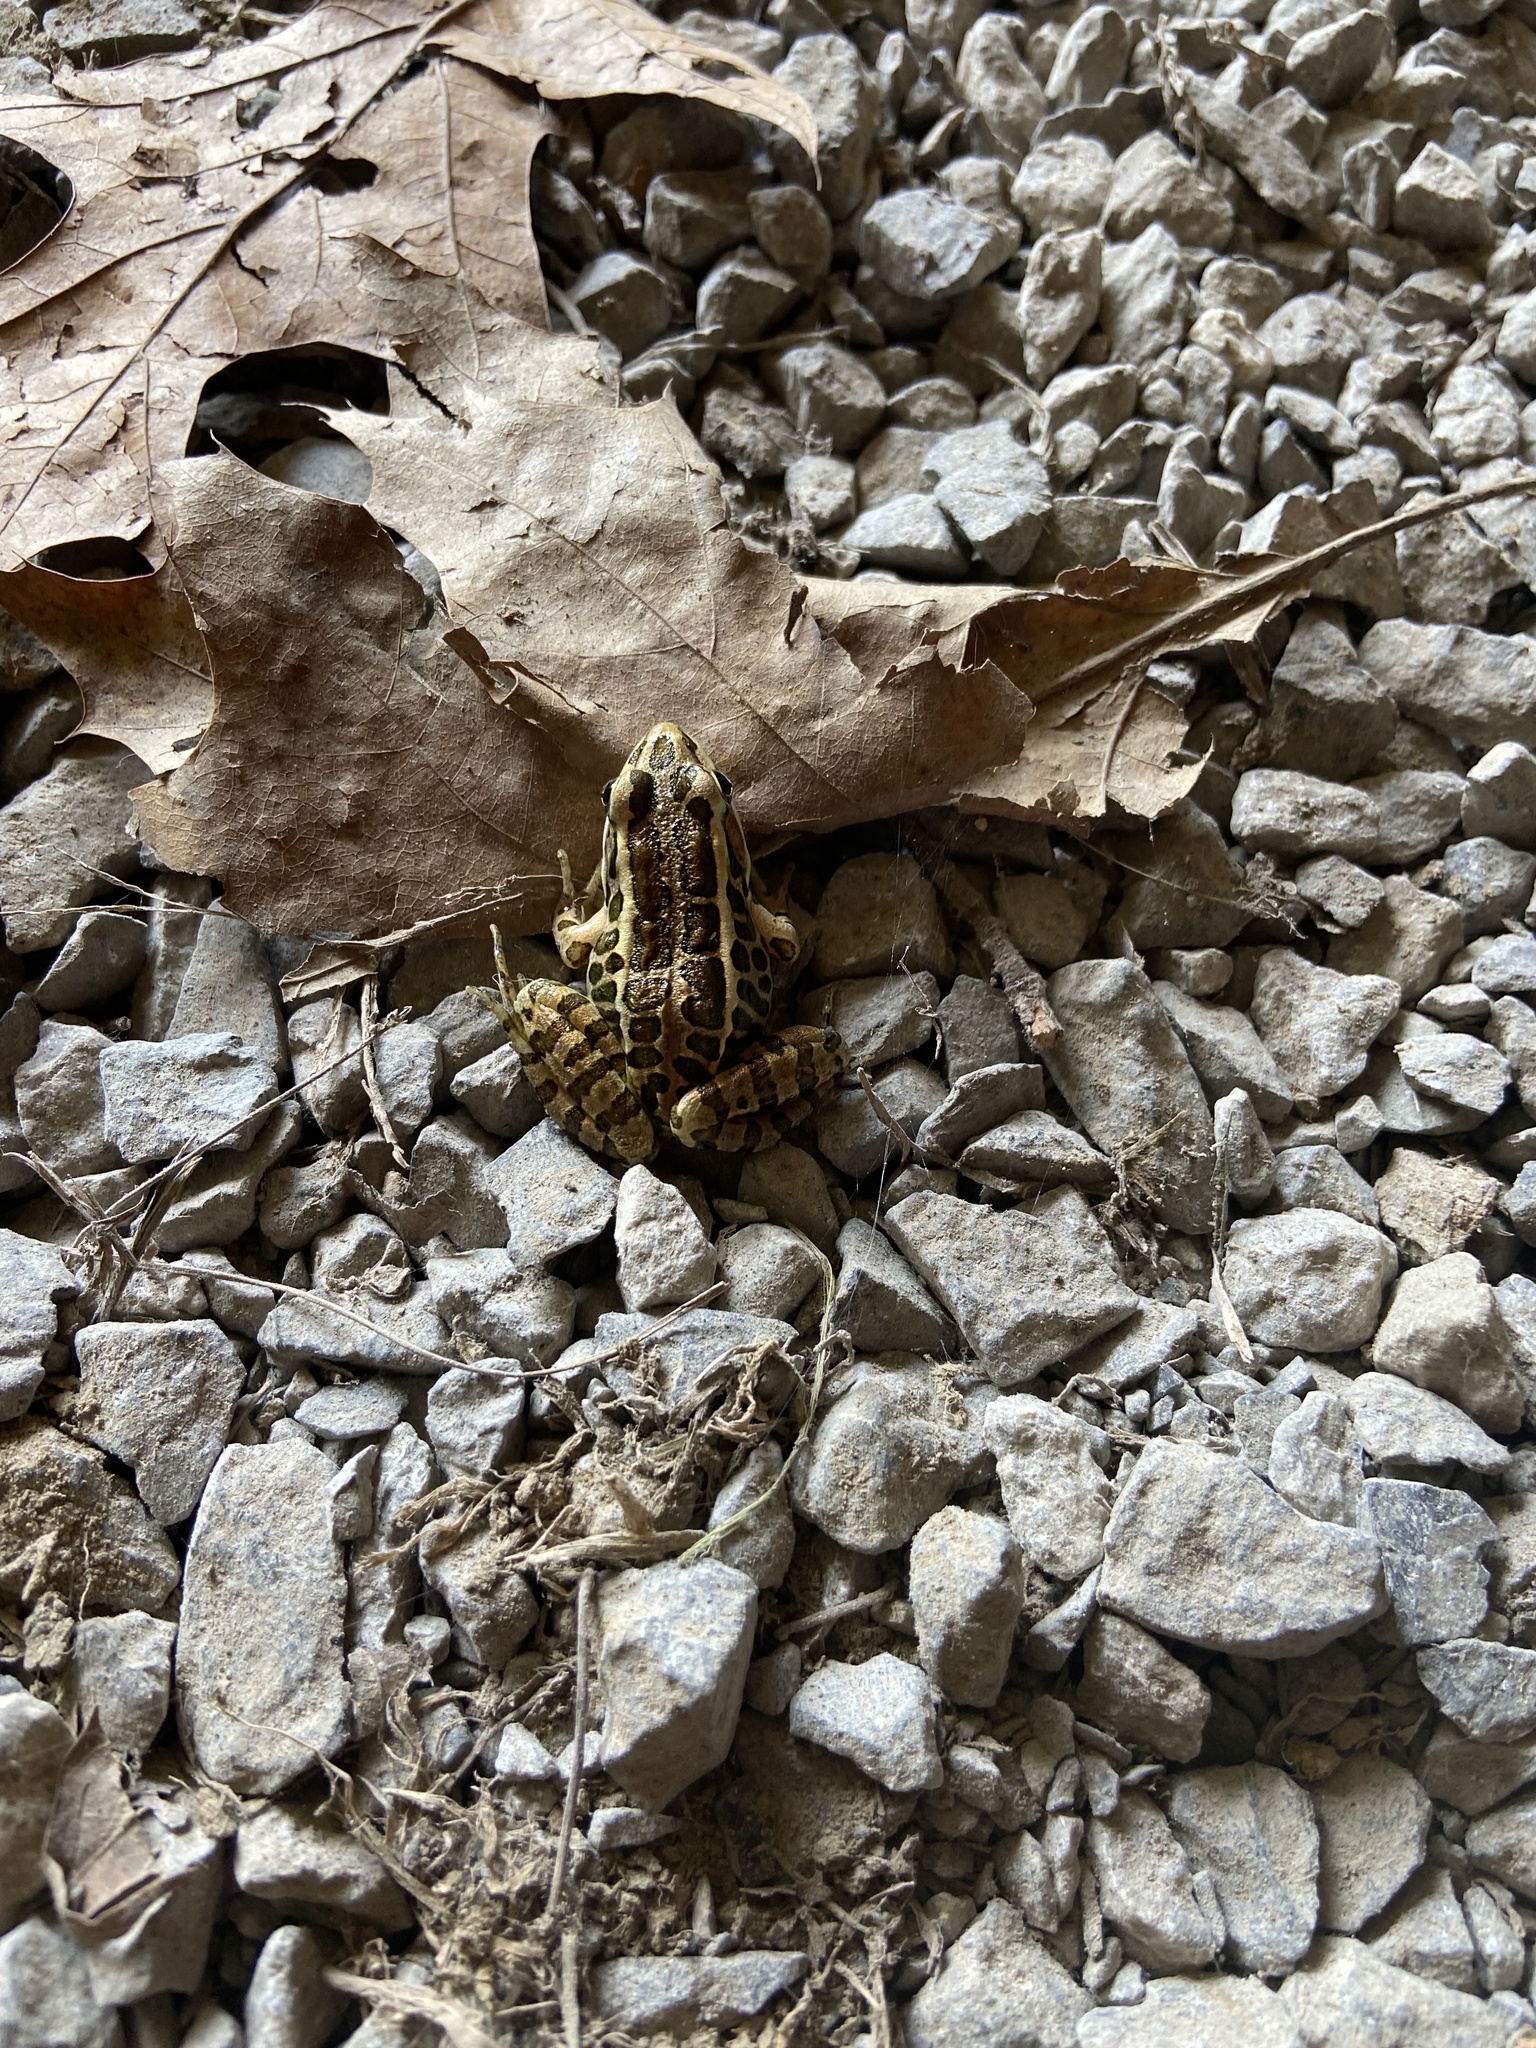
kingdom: Animalia
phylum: Chordata
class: Amphibia
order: Anura
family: Ranidae
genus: Lithobates
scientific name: Lithobates palustris
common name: Pickerel frog
